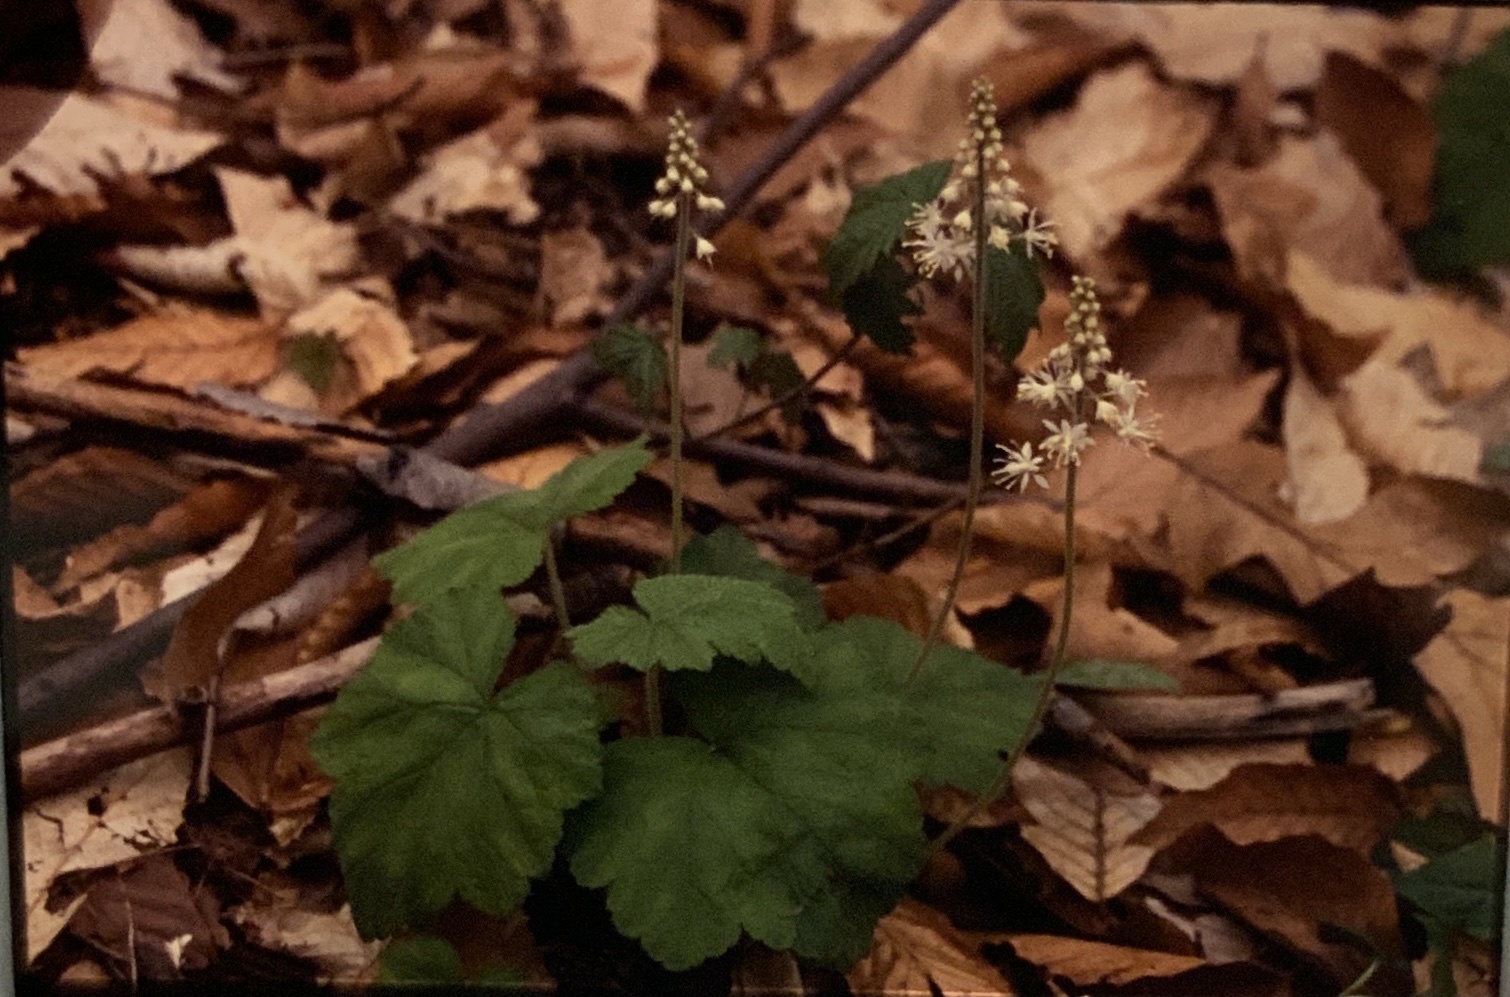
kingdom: Plantae
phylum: Tracheophyta
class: Magnoliopsida
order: Saxifragales
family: Saxifragaceae
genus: Tiarella
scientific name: Tiarella stolonifera
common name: Stoloniferous foamflower
